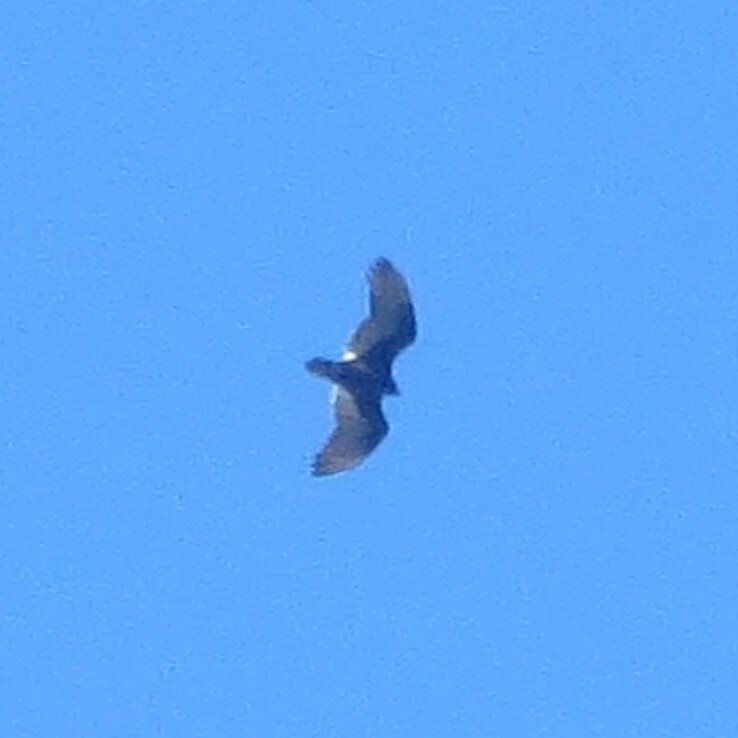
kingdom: Animalia
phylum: Chordata
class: Aves
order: Accipitriformes
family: Cathartidae
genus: Cathartes
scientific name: Cathartes aura
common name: Turkey vulture
